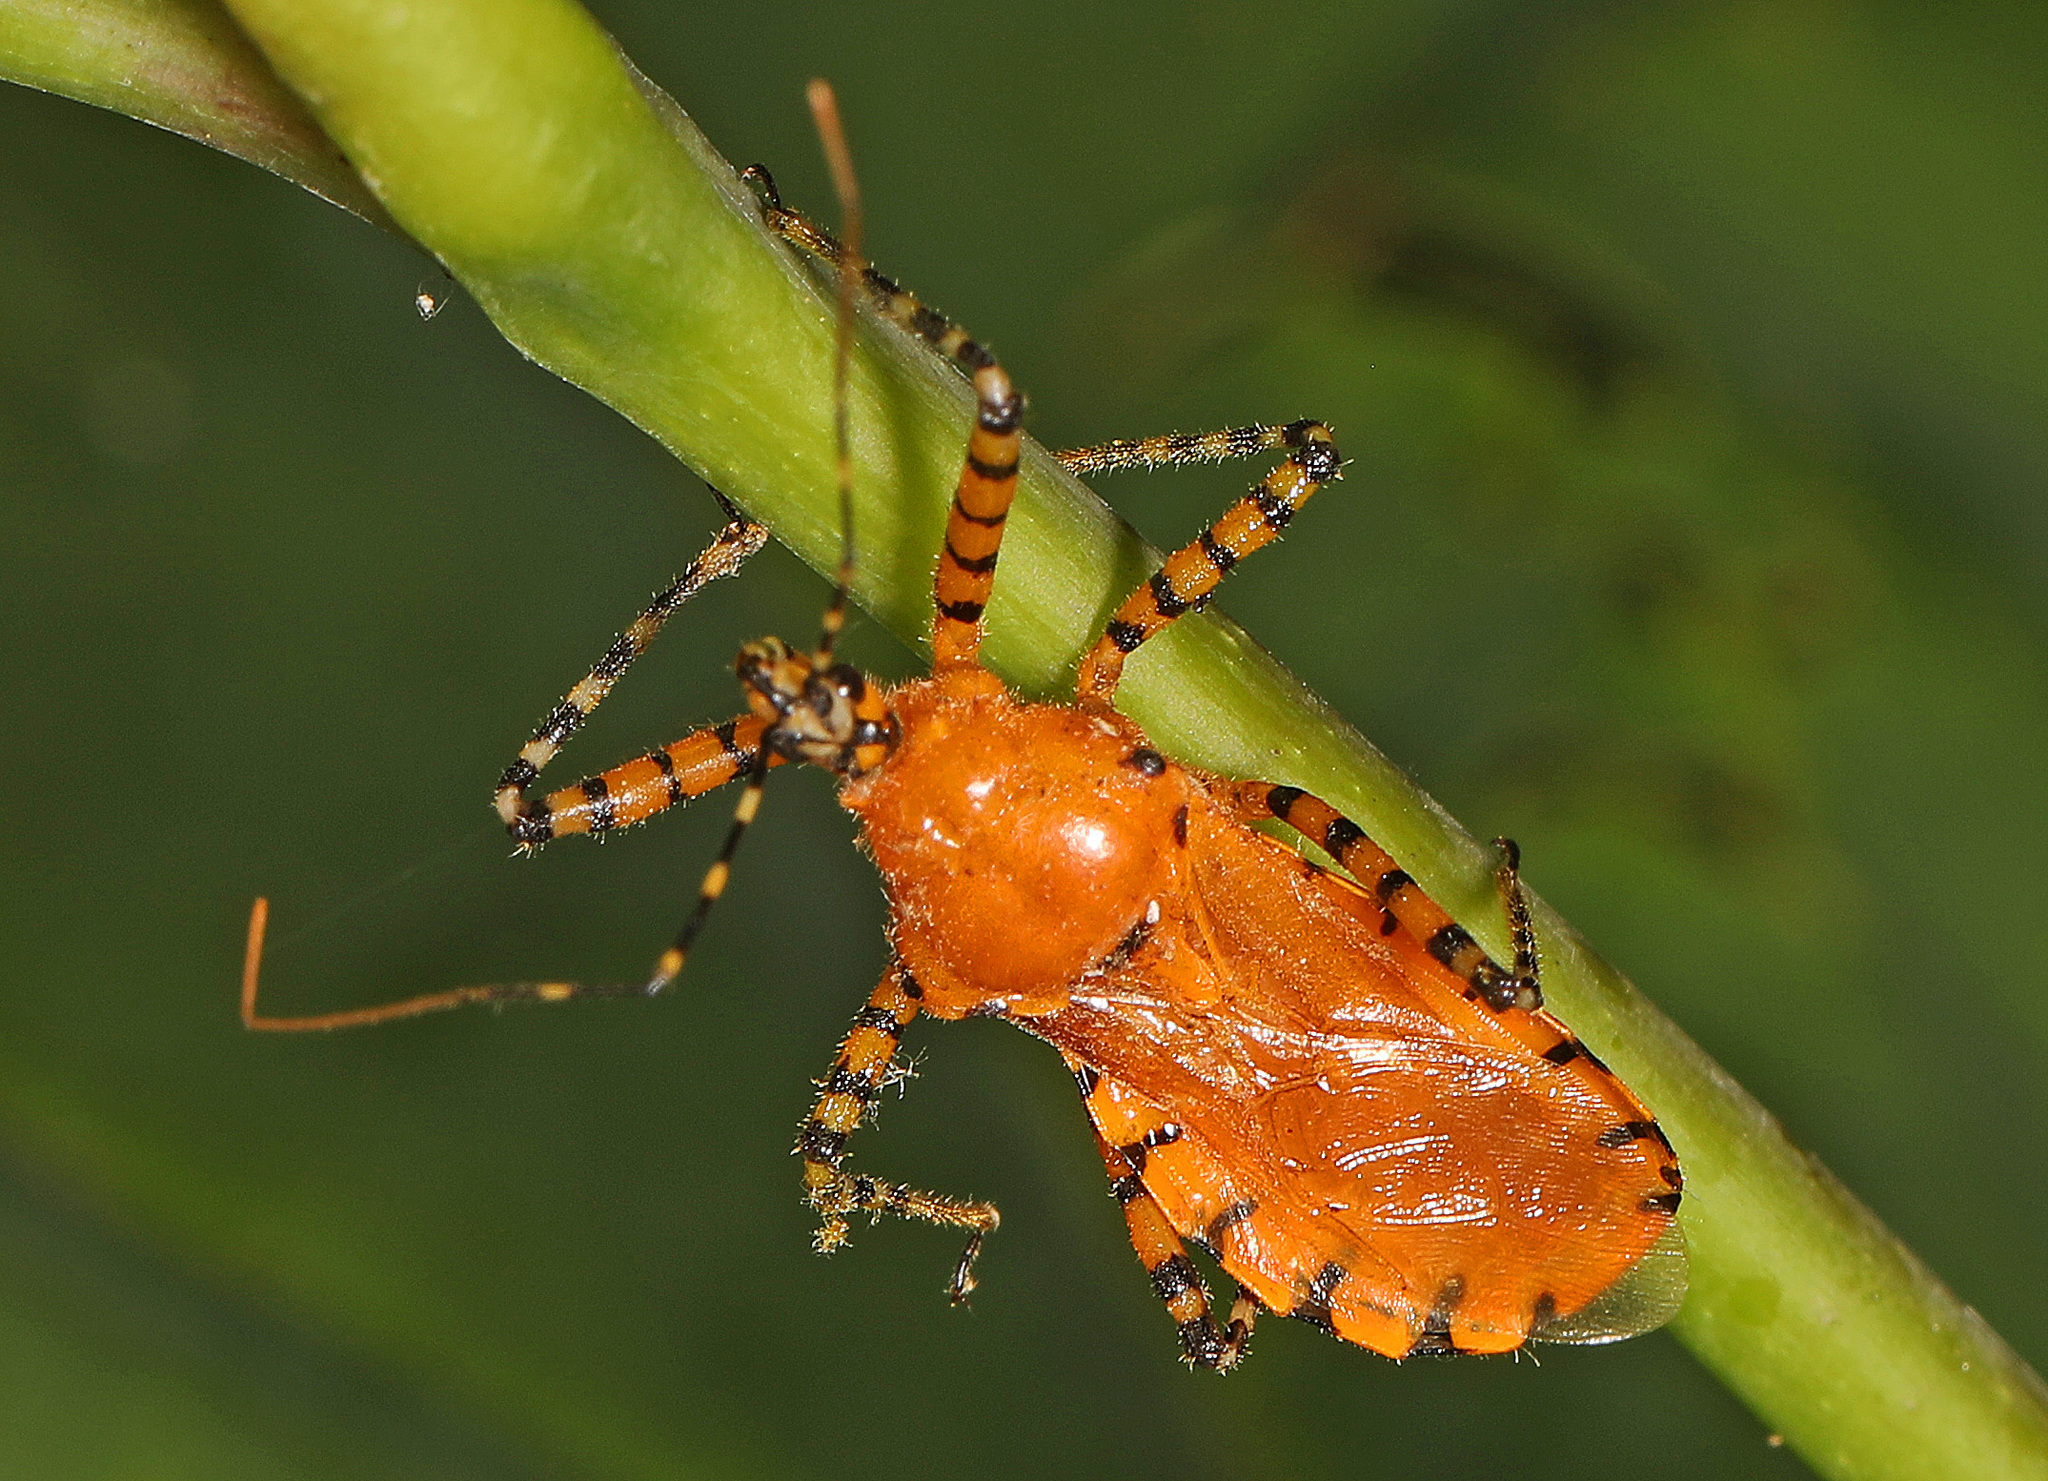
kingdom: Animalia
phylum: Arthropoda
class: Insecta
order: Hemiptera
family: Reduviidae
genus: Pselliopus
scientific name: Pselliopus barberi
